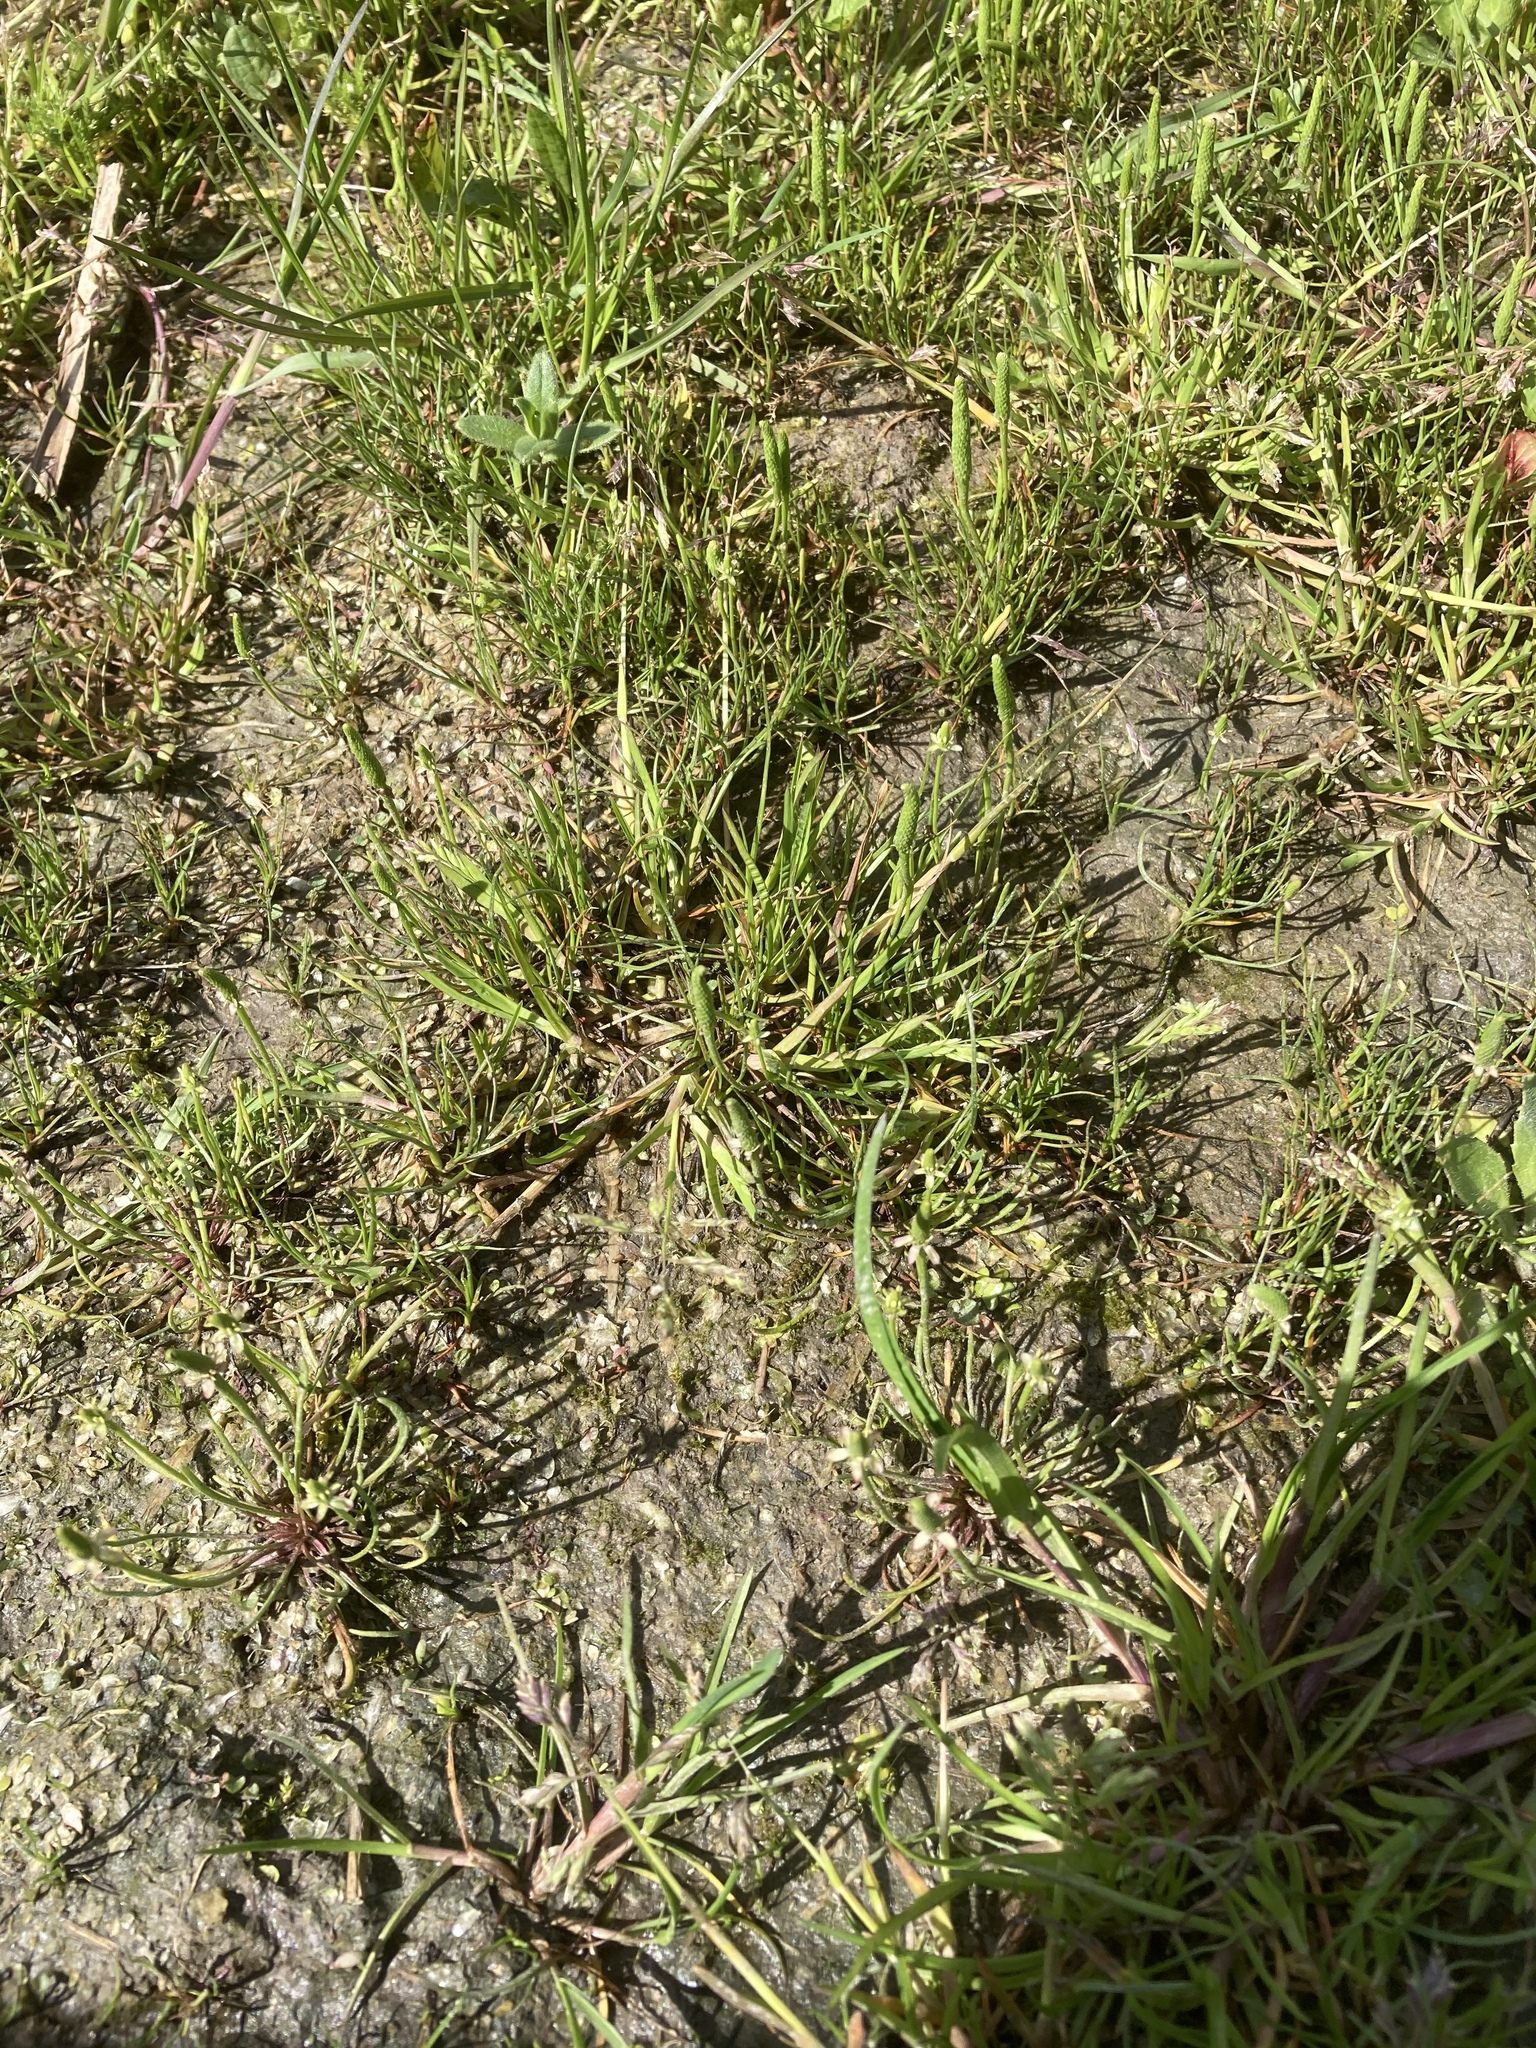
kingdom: Plantae
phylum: Tracheophyta
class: Magnoliopsida
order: Ranunculales
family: Ranunculaceae
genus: Myosurus
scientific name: Myosurus minimus
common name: Mousetail
